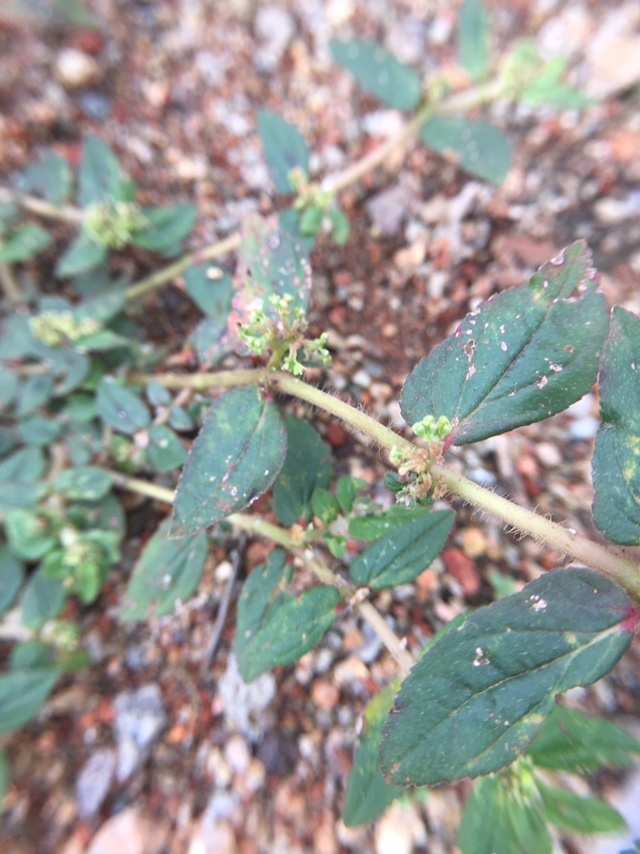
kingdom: Plantae
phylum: Tracheophyta
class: Magnoliopsida
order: Malpighiales
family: Euphorbiaceae
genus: Euphorbia
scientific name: Euphorbia hirta
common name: Pillpod sandmat
